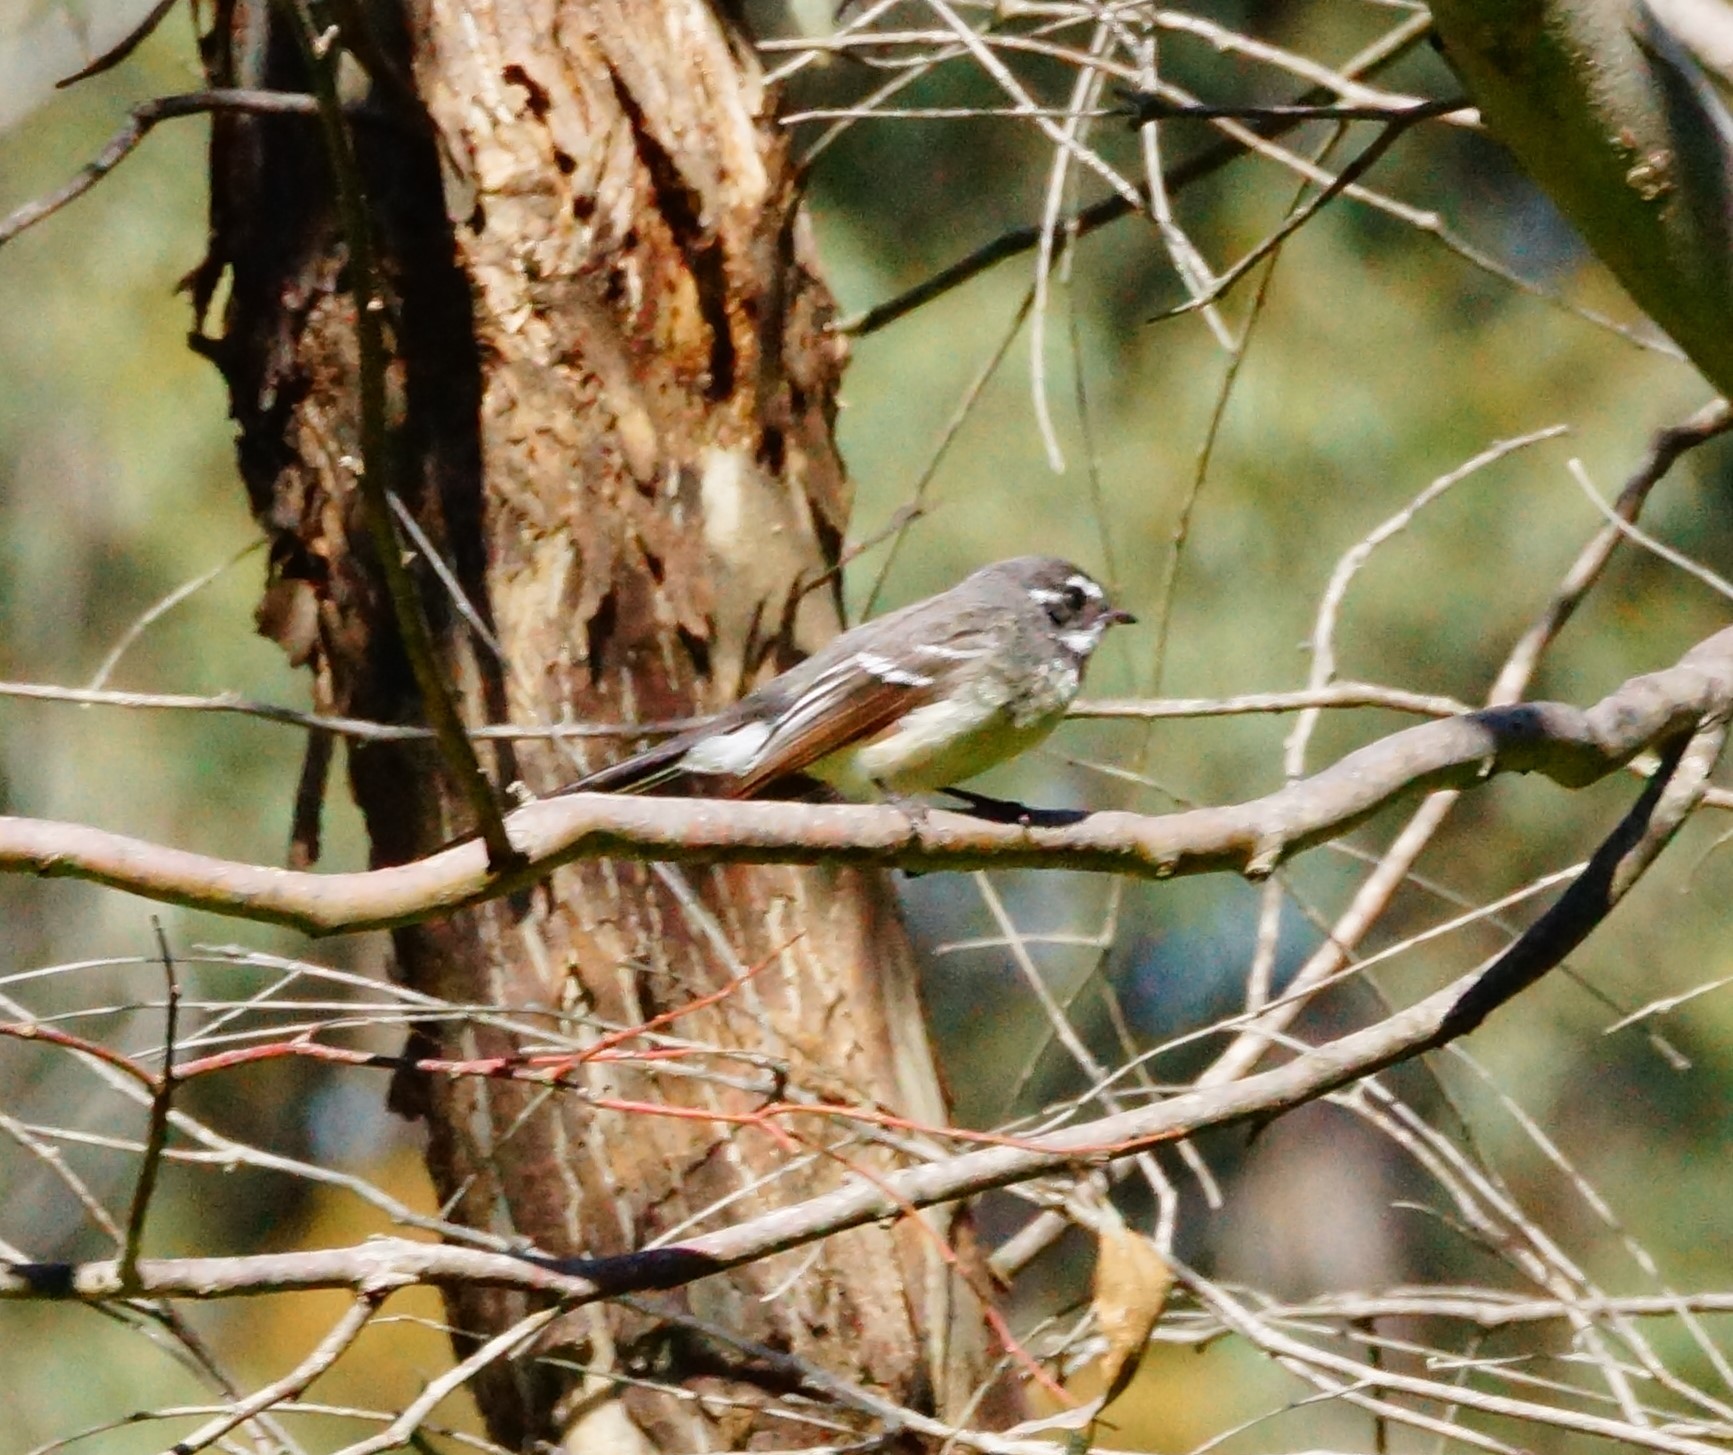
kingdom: Animalia
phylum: Chordata
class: Aves
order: Passeriformes
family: Rhipiduridae
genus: Rhipidura
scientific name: Rhipidura albiscapa
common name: Grey fantail
